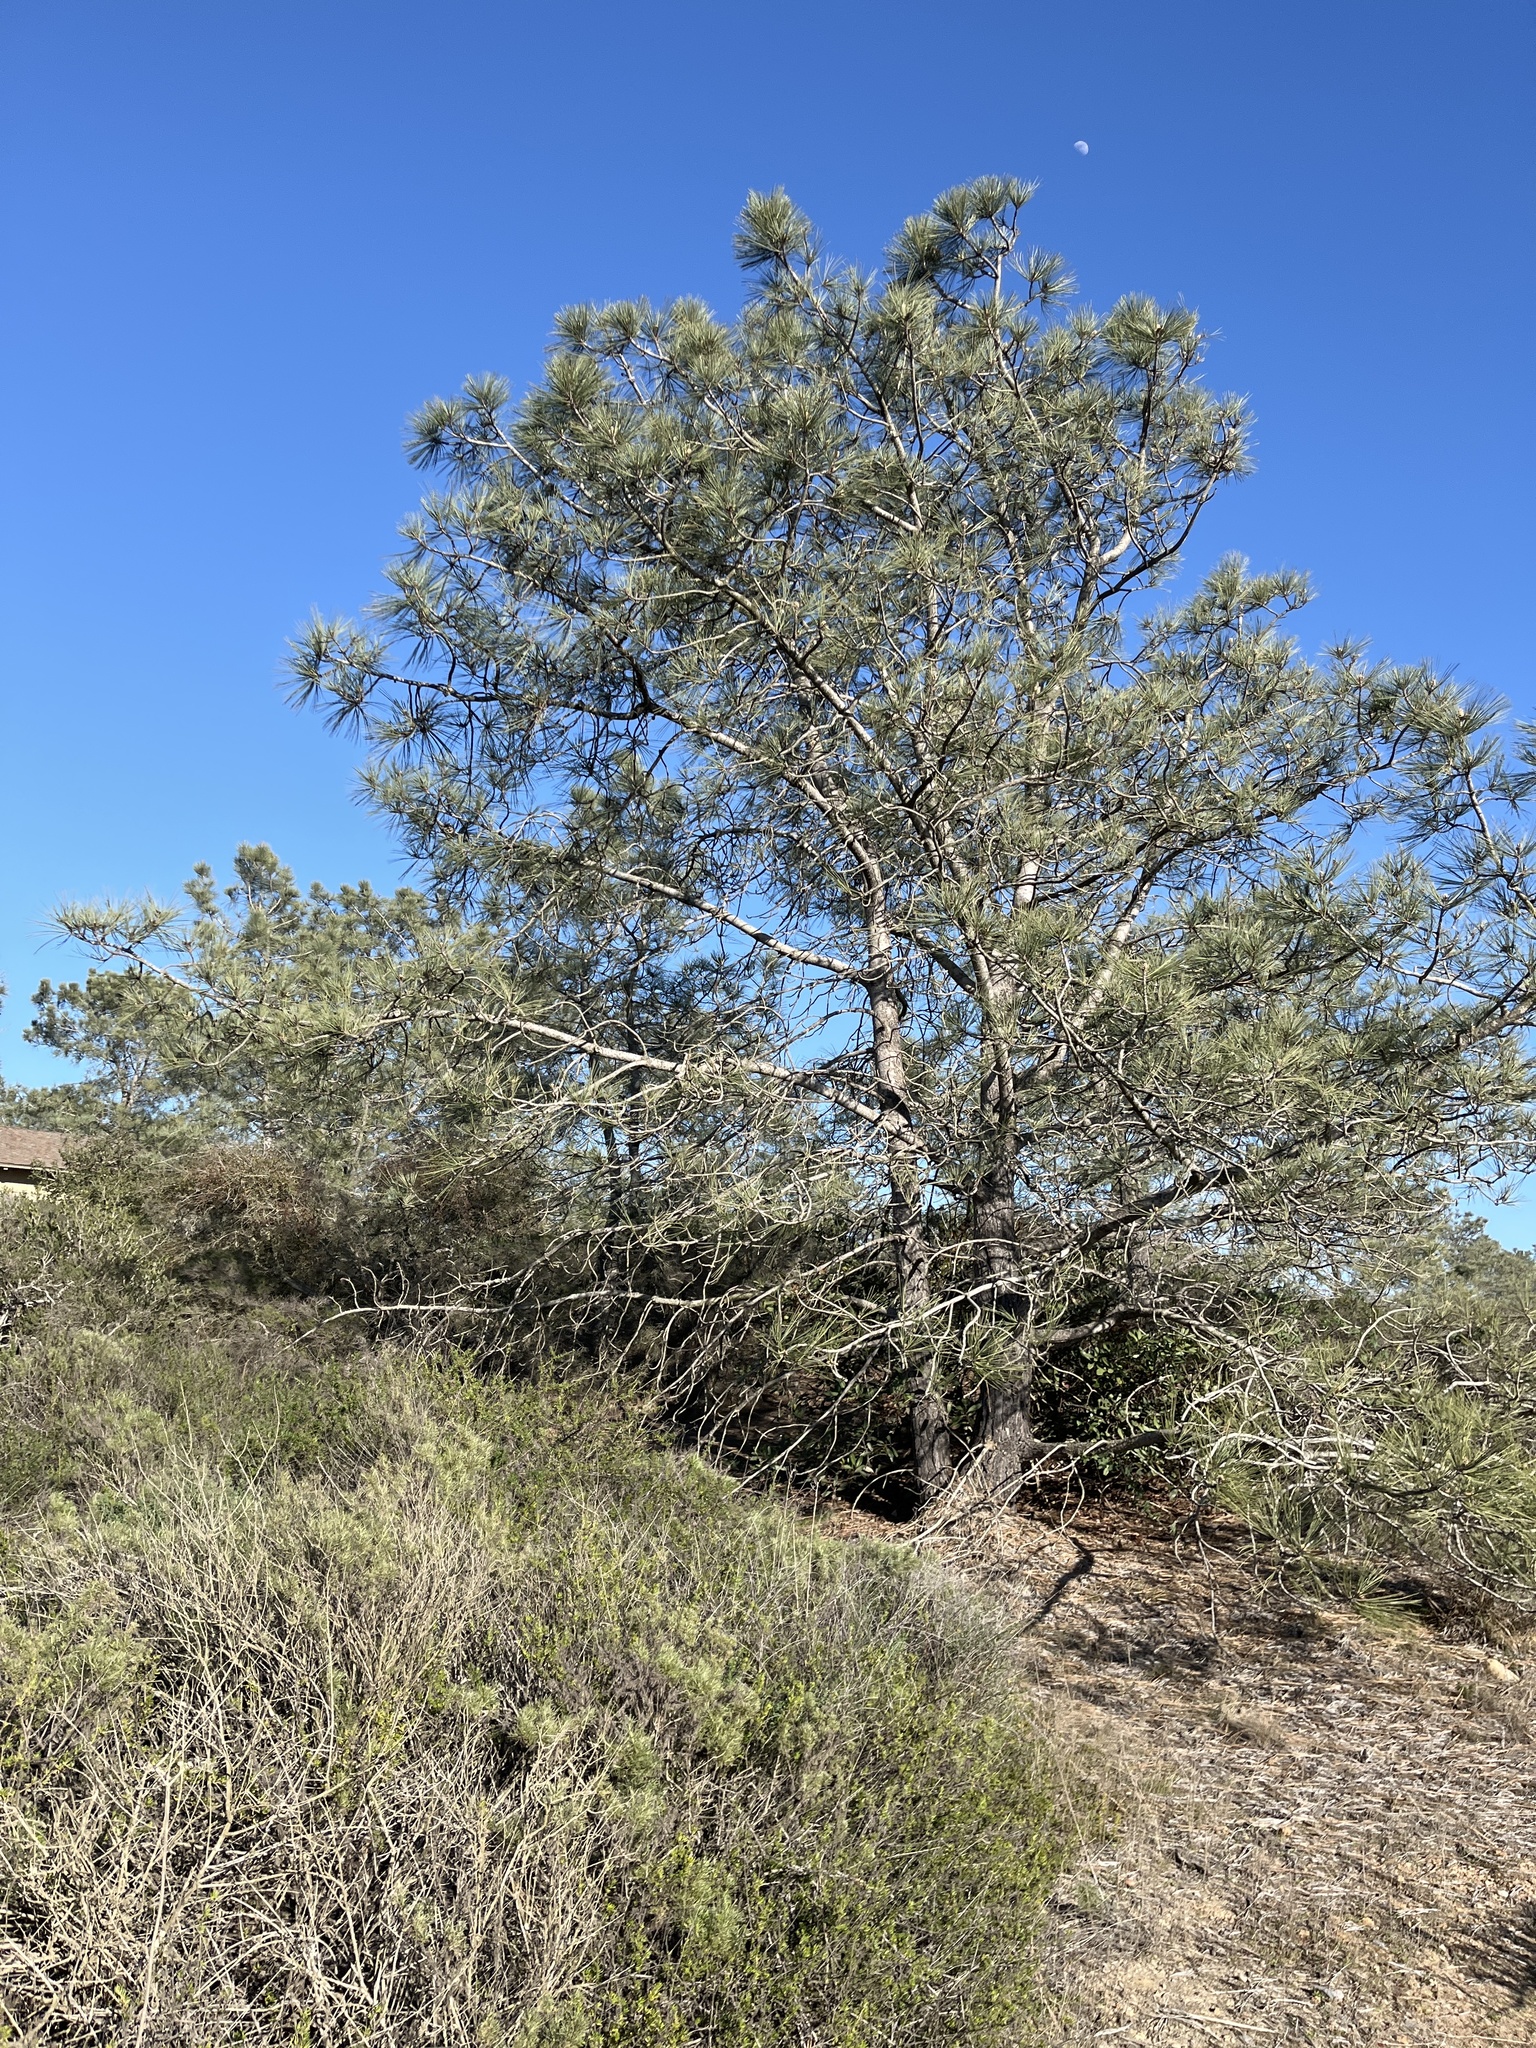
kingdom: Plantae
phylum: Tracheophyta
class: Pinopsida
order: Pinales
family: Pinaceae
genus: Pinus
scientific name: Pinus torreyana
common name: Torrey pine
